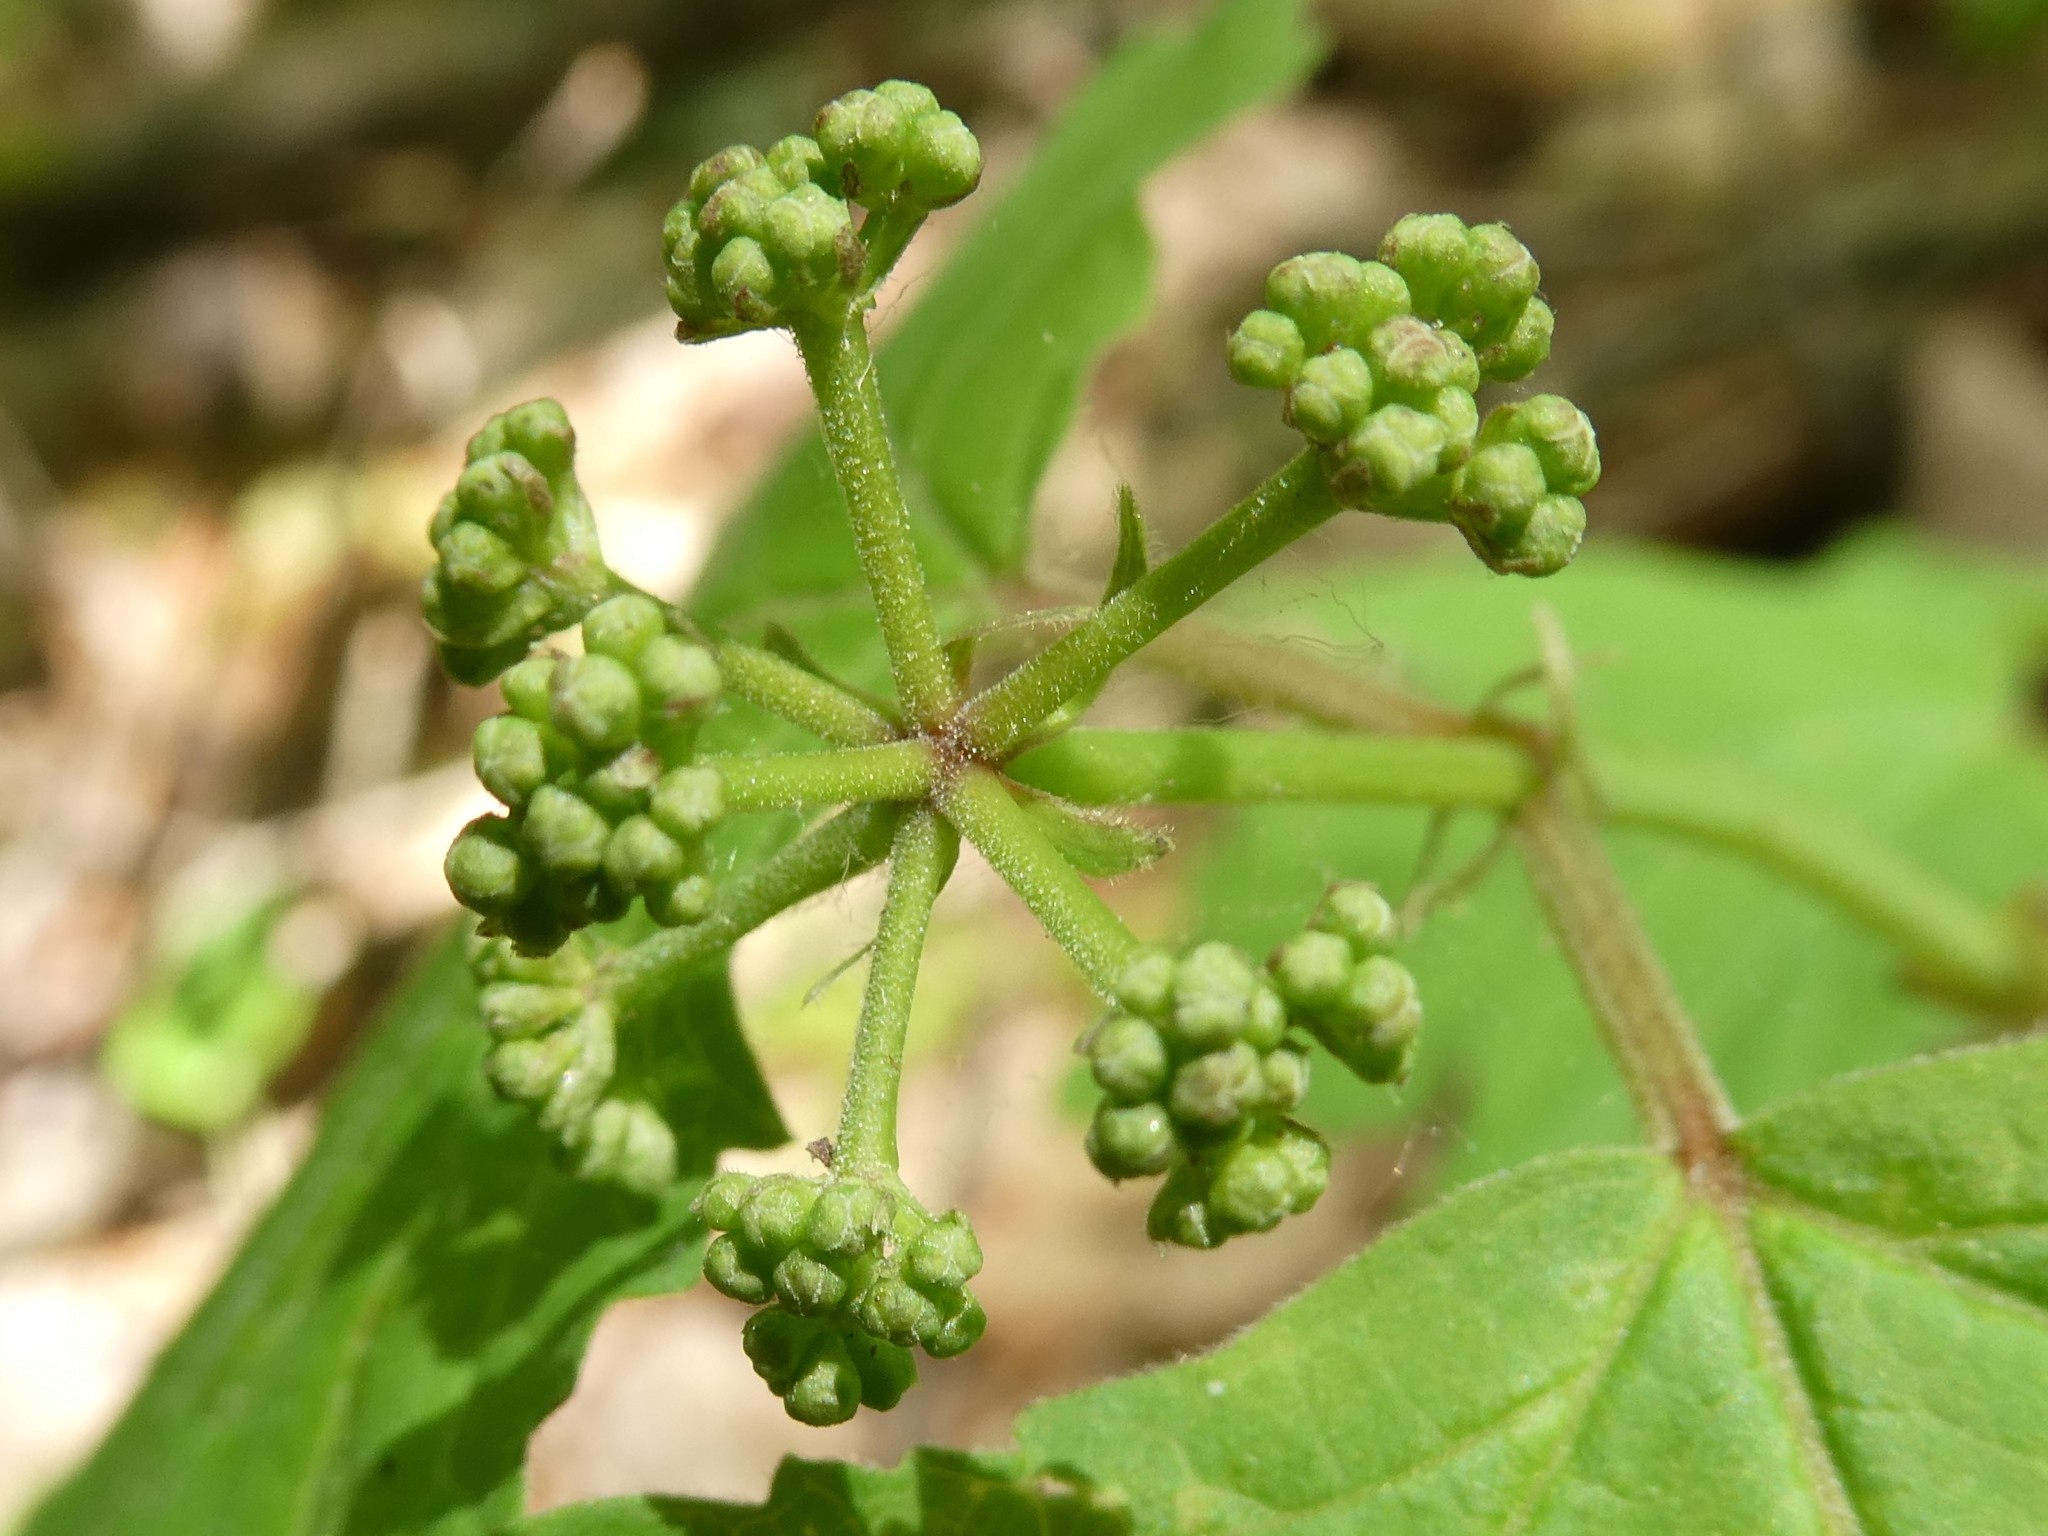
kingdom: Plantae
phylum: Tracheophyta
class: Magnoliopsida
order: Dipsacales
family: Viburnaceae
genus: Viburnum
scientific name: Viburnum acerifolium
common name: Dockmackie
